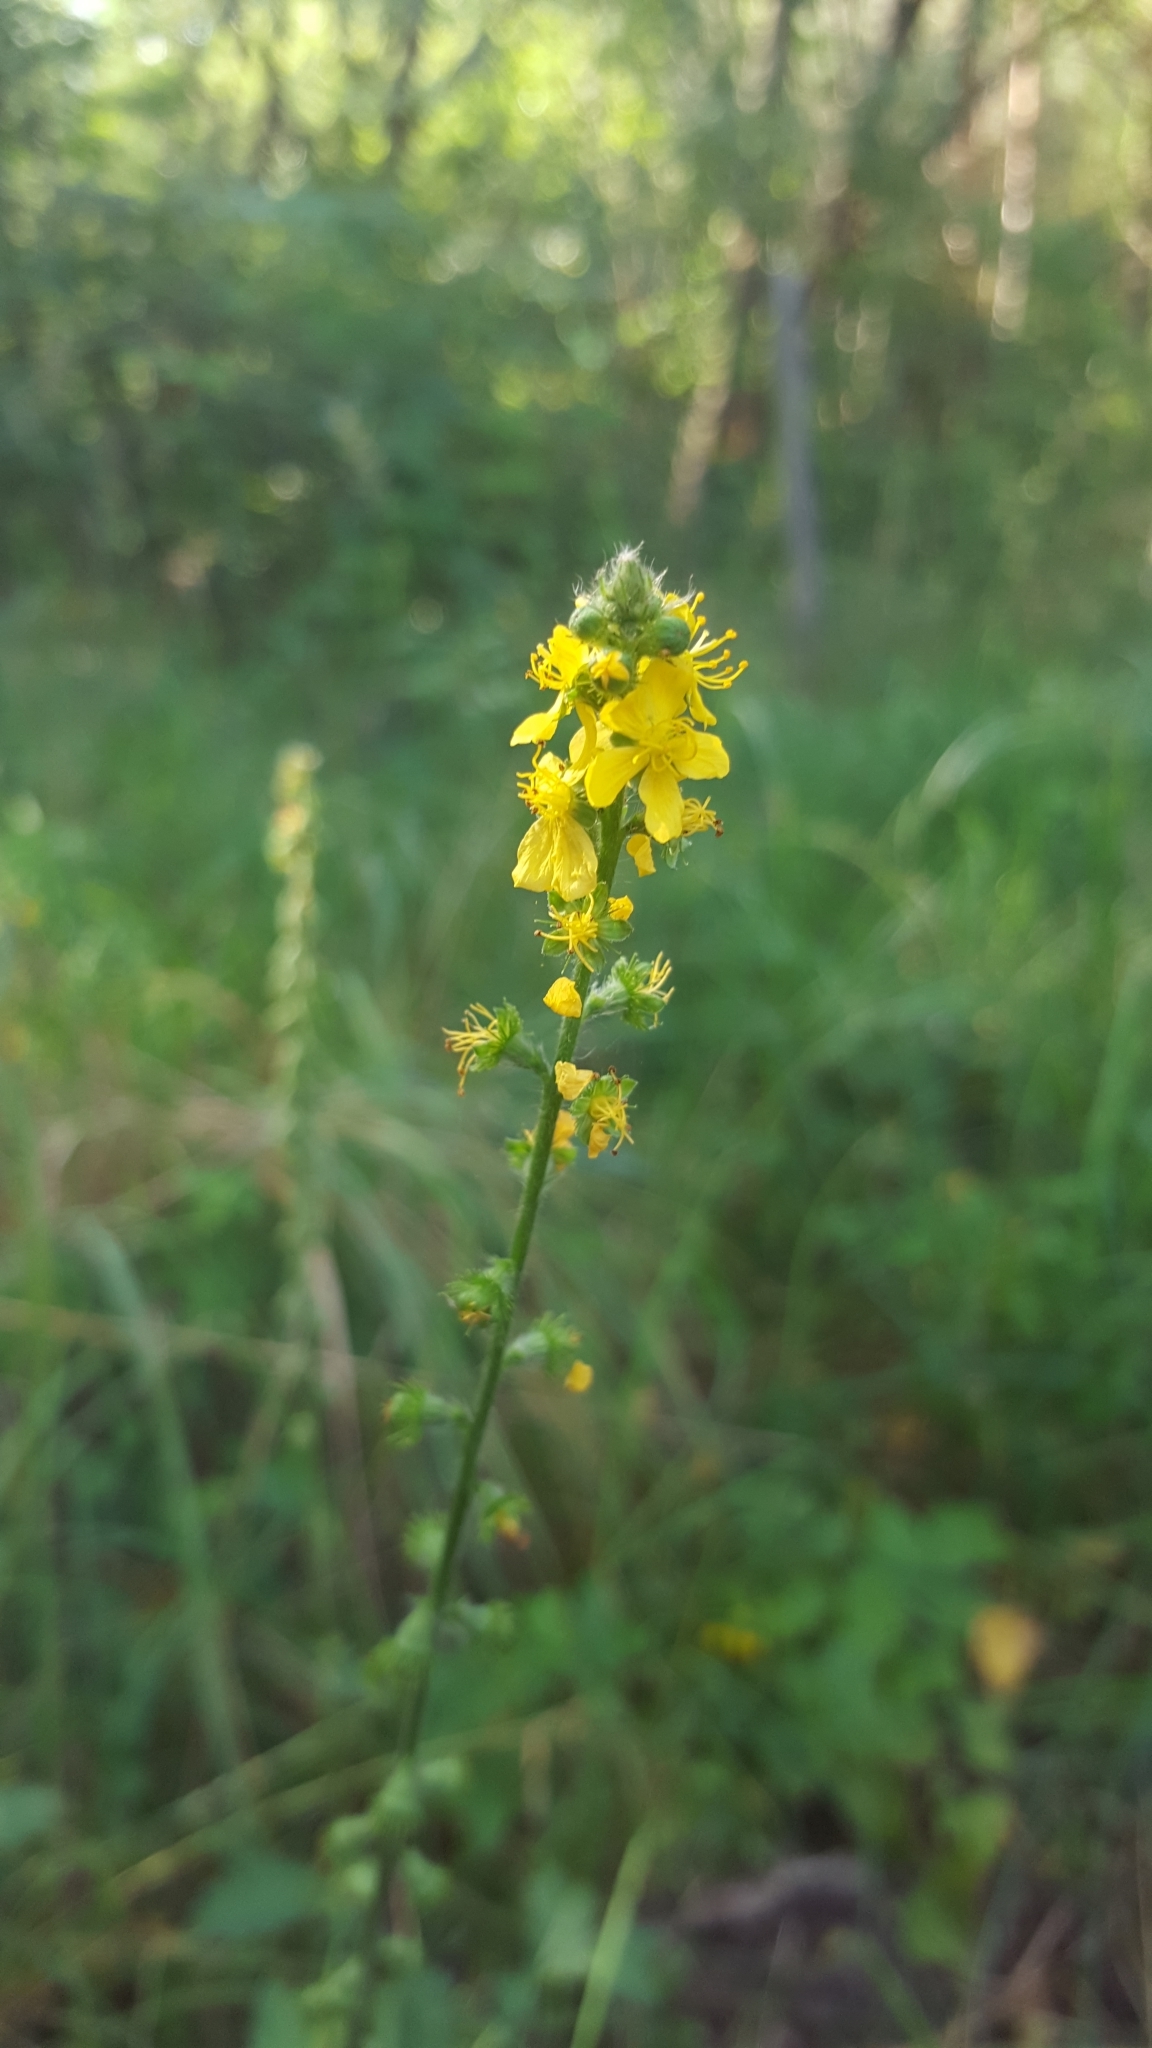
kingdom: Plantae
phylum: Tracheophyta
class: Magnoliopsida
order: Rosales
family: Rosaceae
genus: Agrimonia
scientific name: Agrimonia eupatoria
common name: Agrimony
